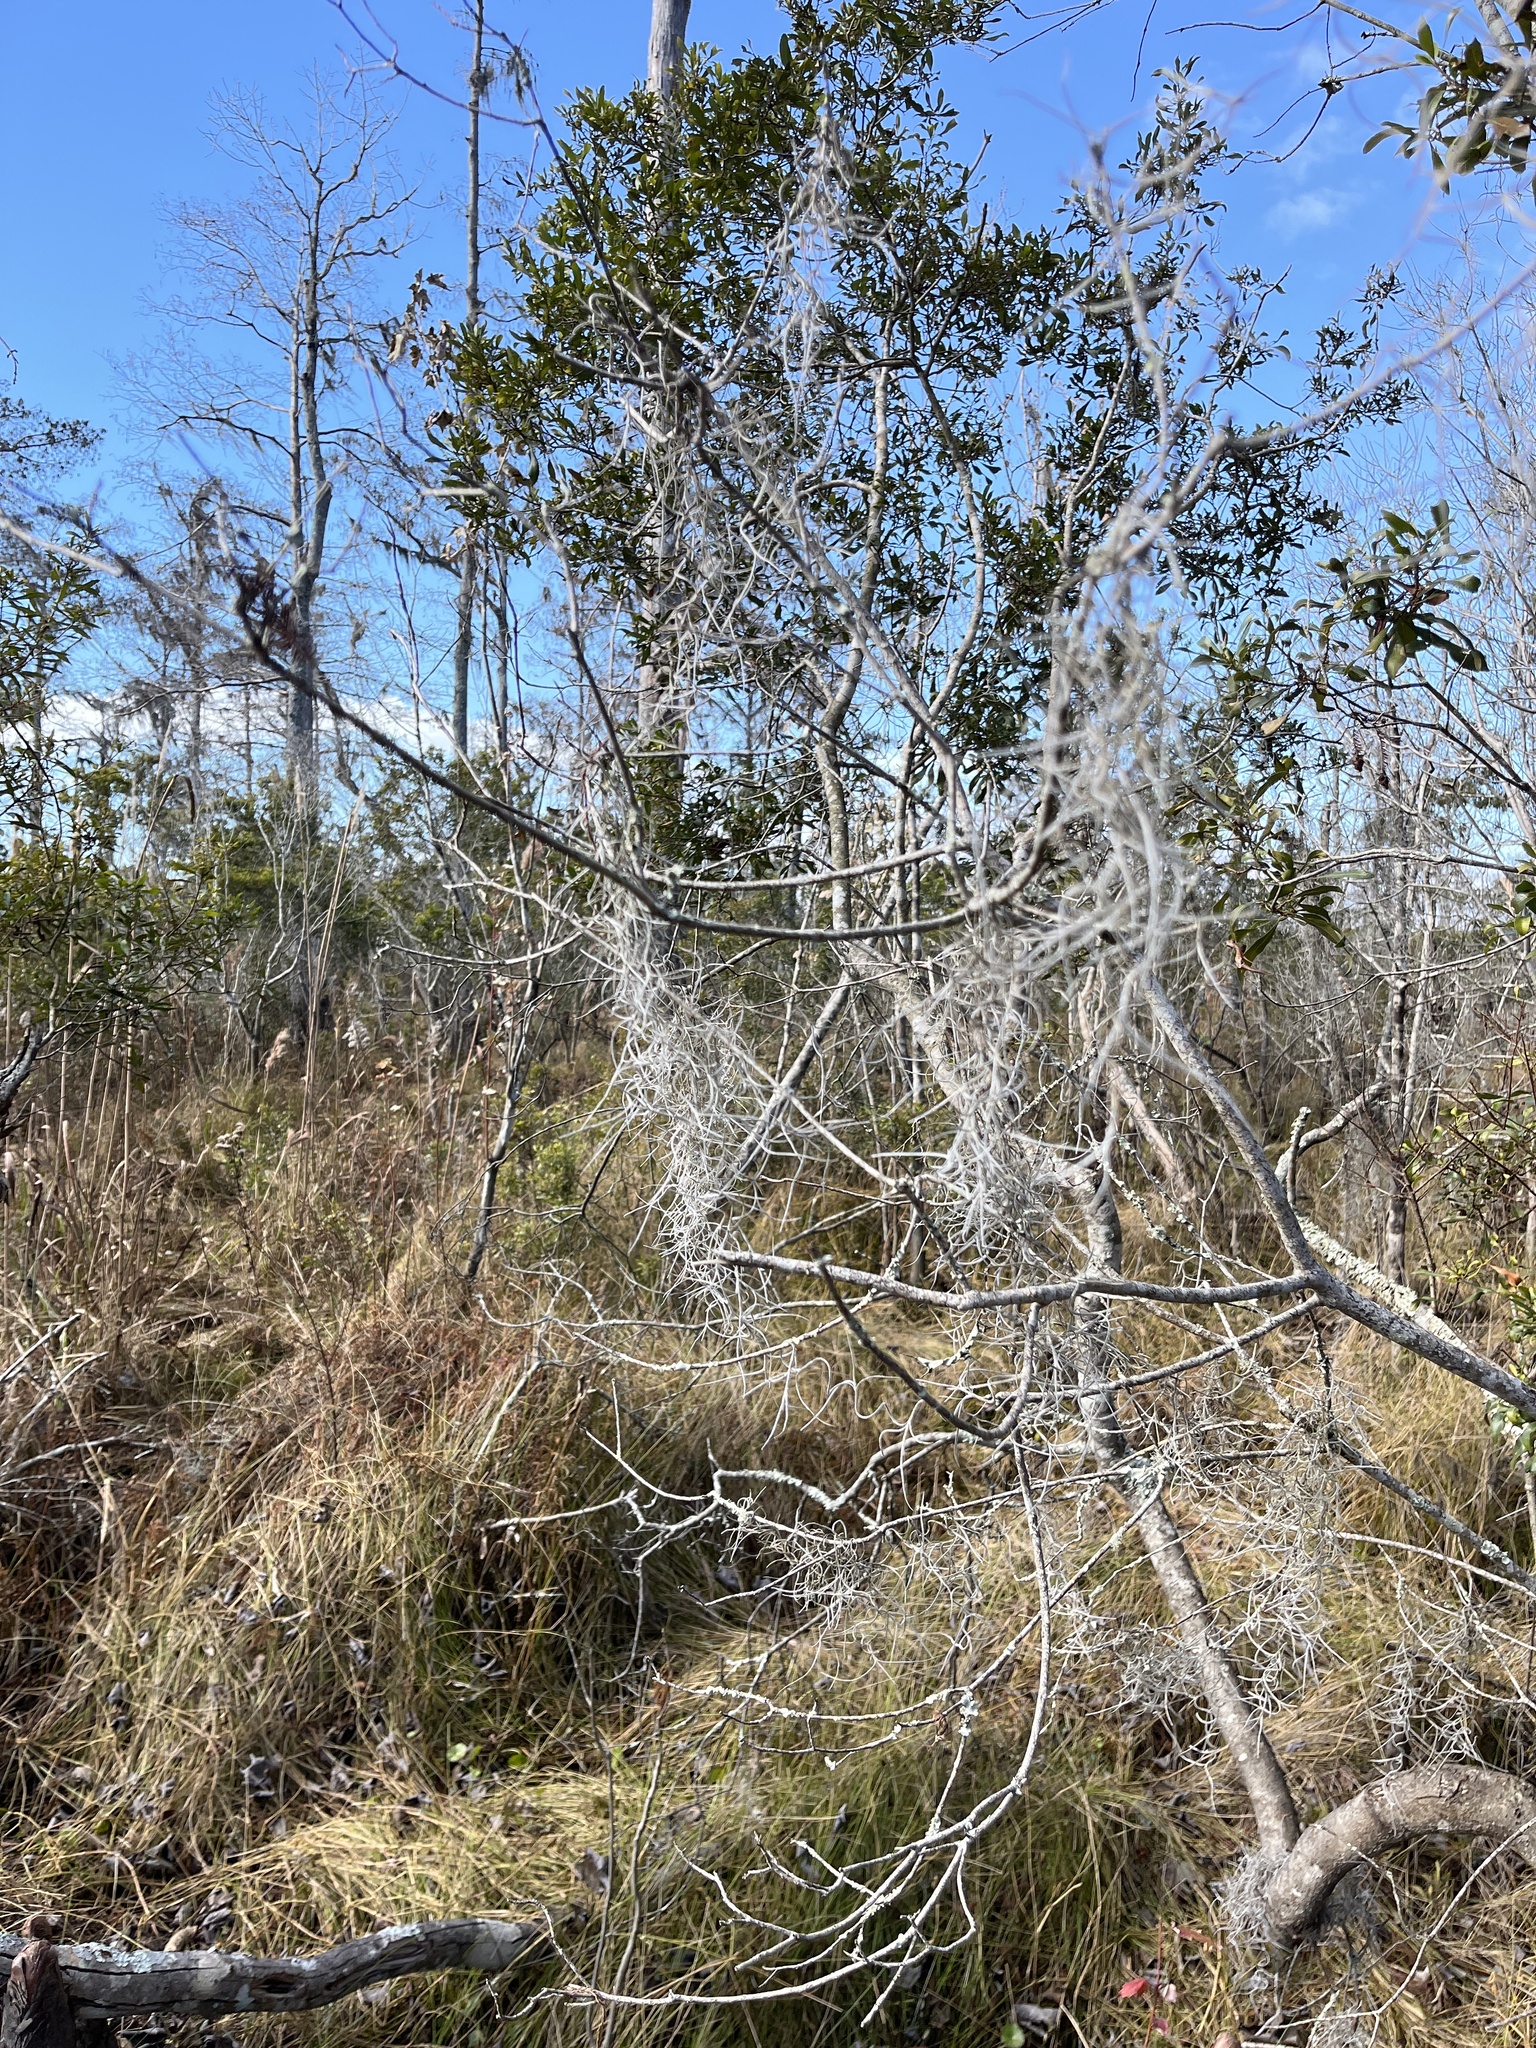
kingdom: Plantae
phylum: Tracheophyta
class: Liliopsida
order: Poales
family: Bromeliaceae
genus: Tillandsia
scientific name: Tillandsia usneoides
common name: Spanish moss
